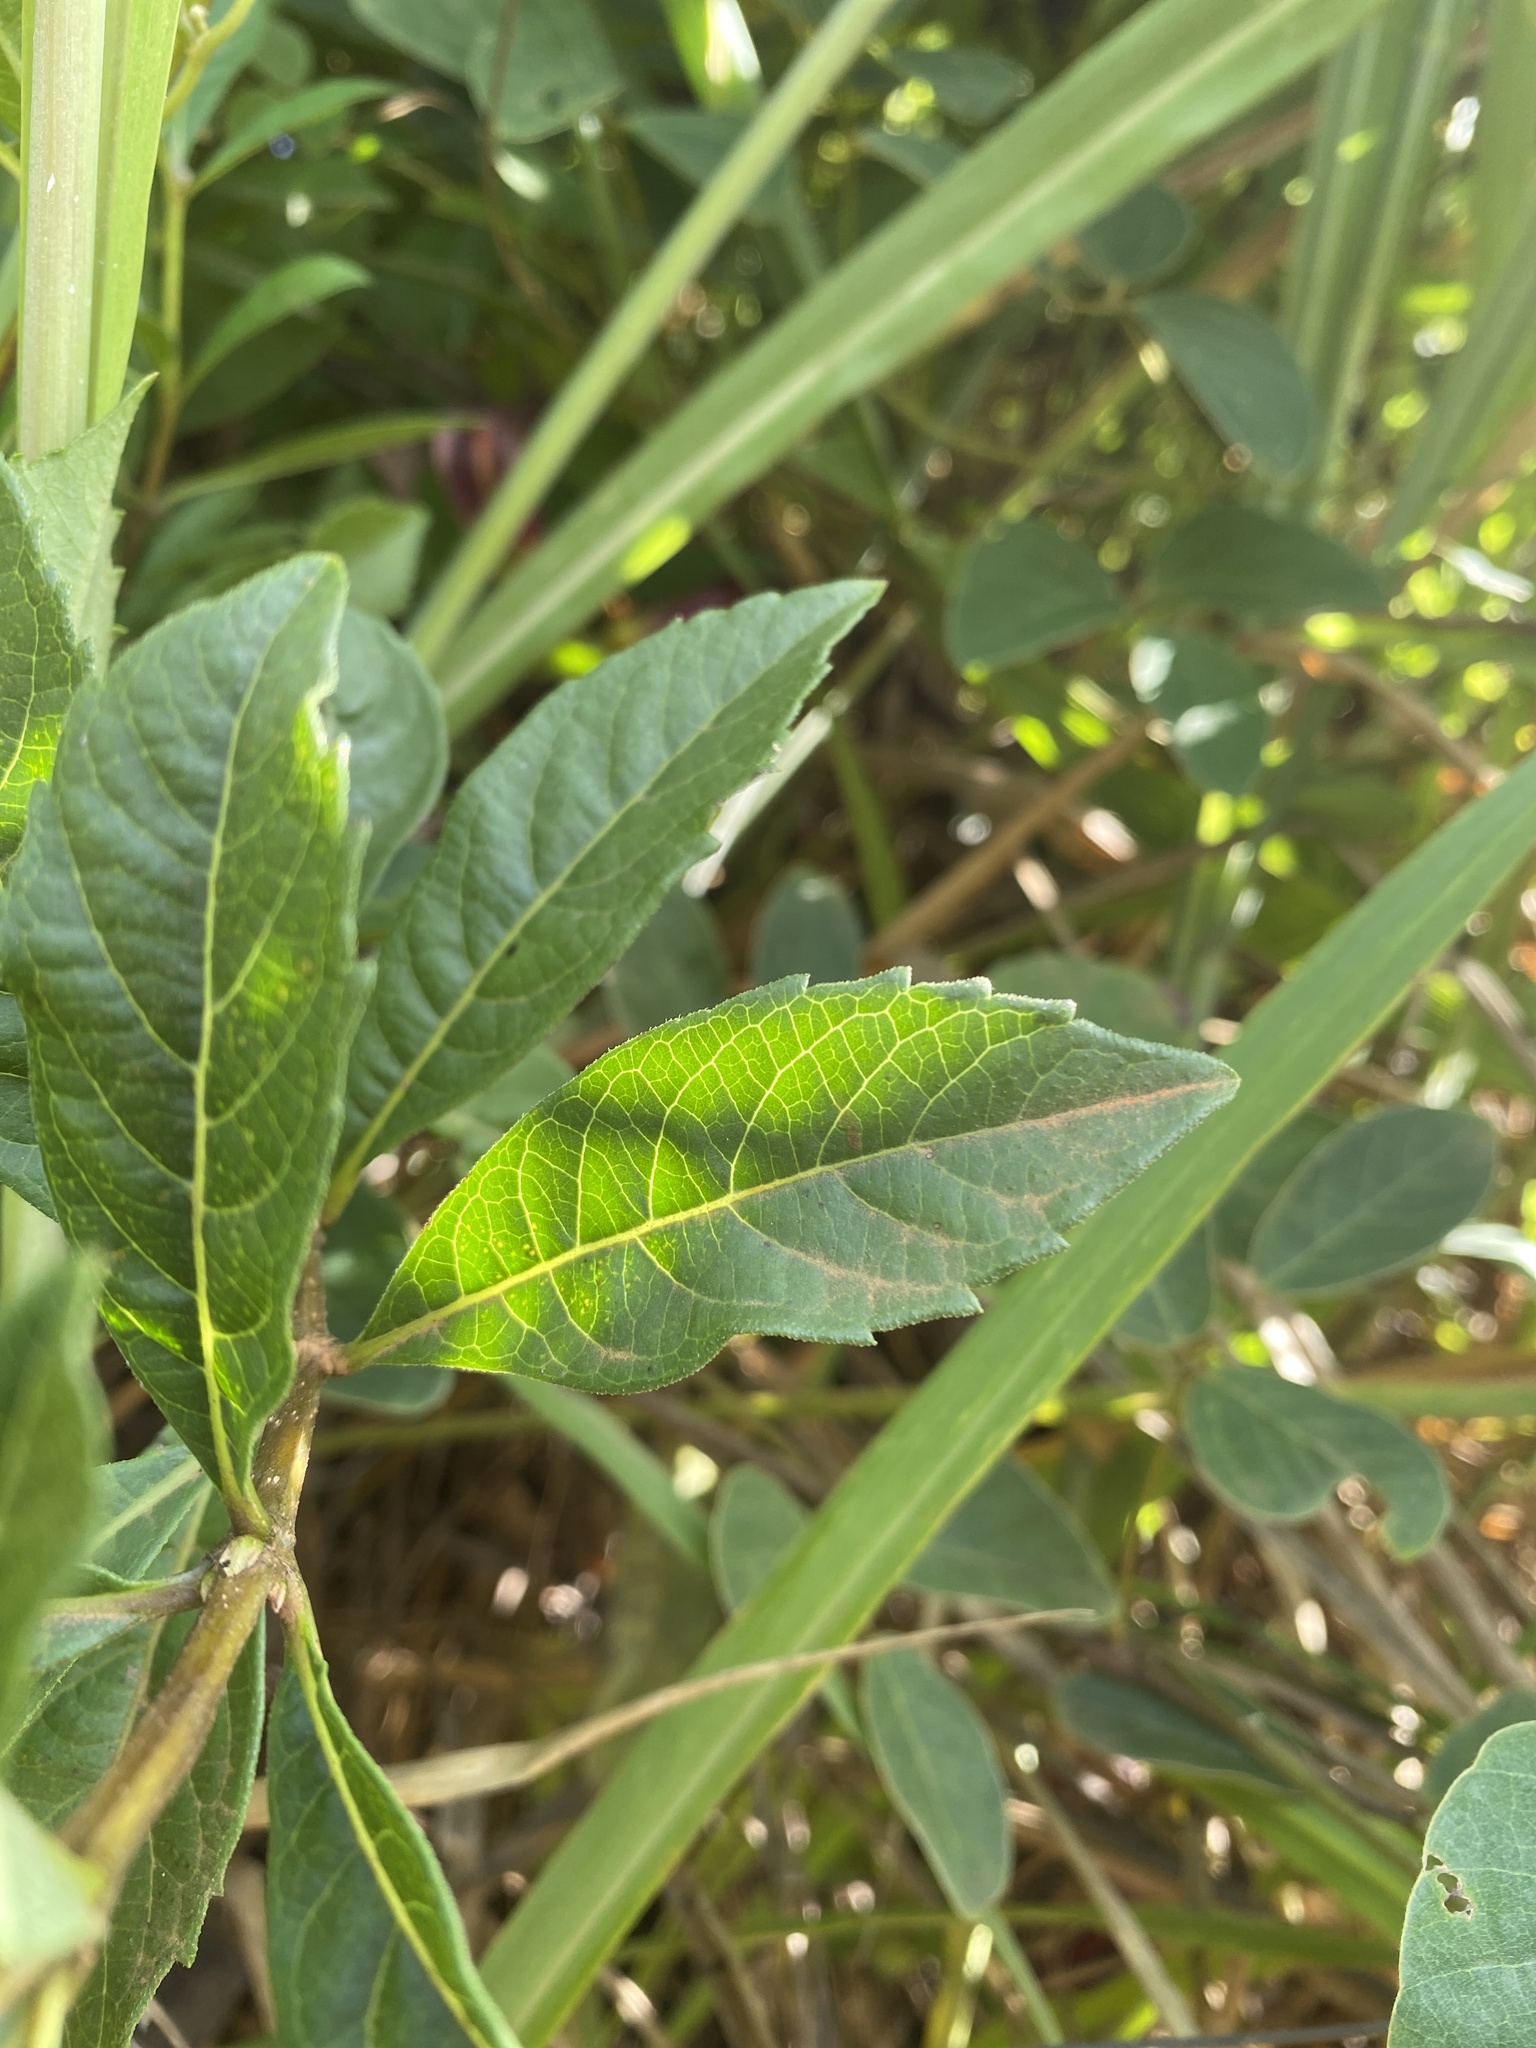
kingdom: Plantae
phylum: Tracheophyta
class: Magnoliopsida
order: Lamiales
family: Lamiaceae
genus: Rotheca
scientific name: Rotheca myricoides
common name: Cats-whiskers
